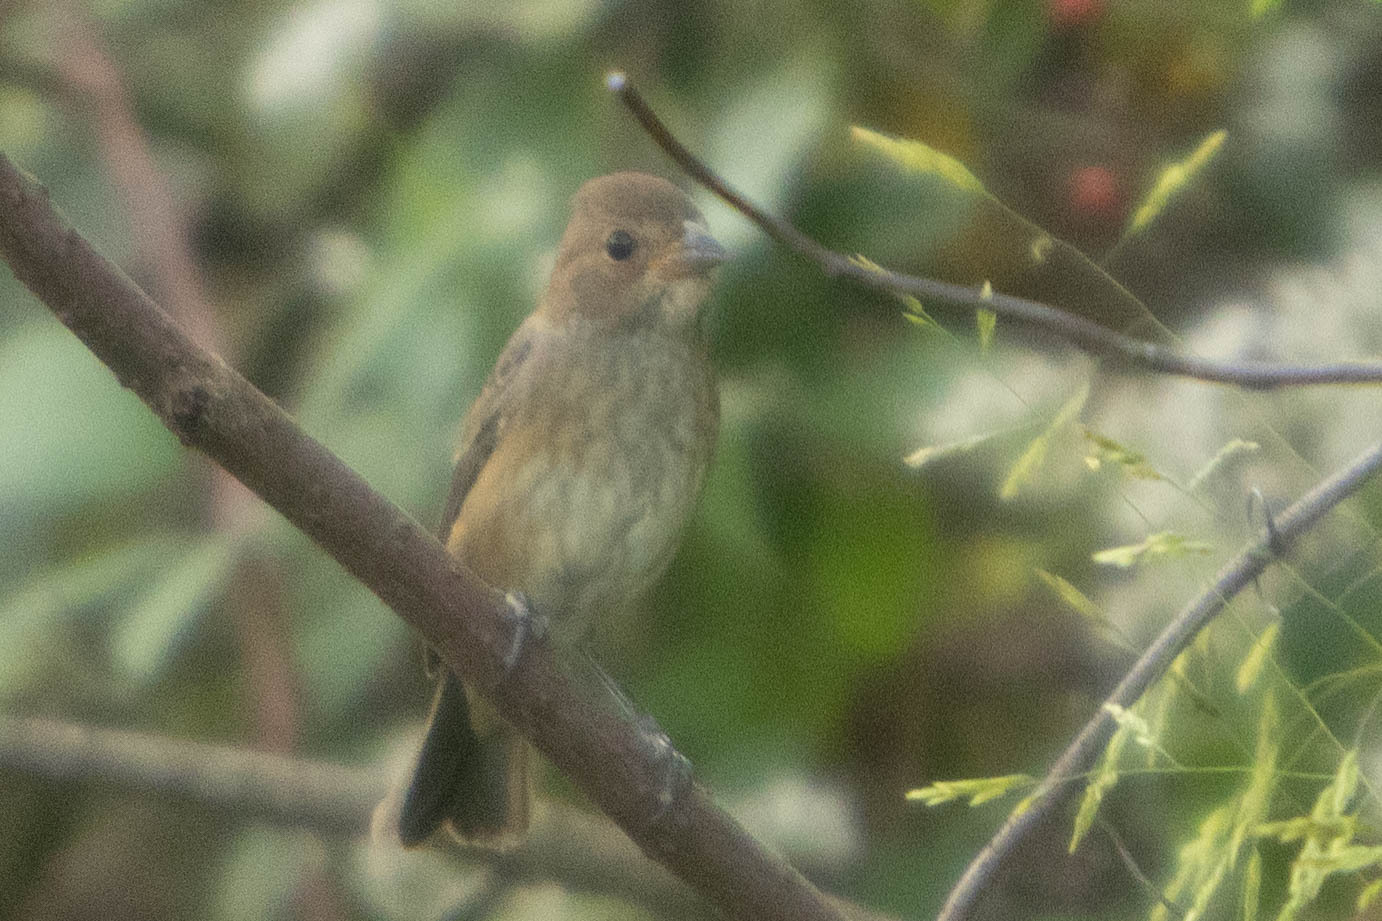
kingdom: Animalia
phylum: Chordata
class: Aves
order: Passeriformes
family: Cardinalidae
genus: Passerina
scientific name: Passerina cyanea
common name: Indigo bunting
